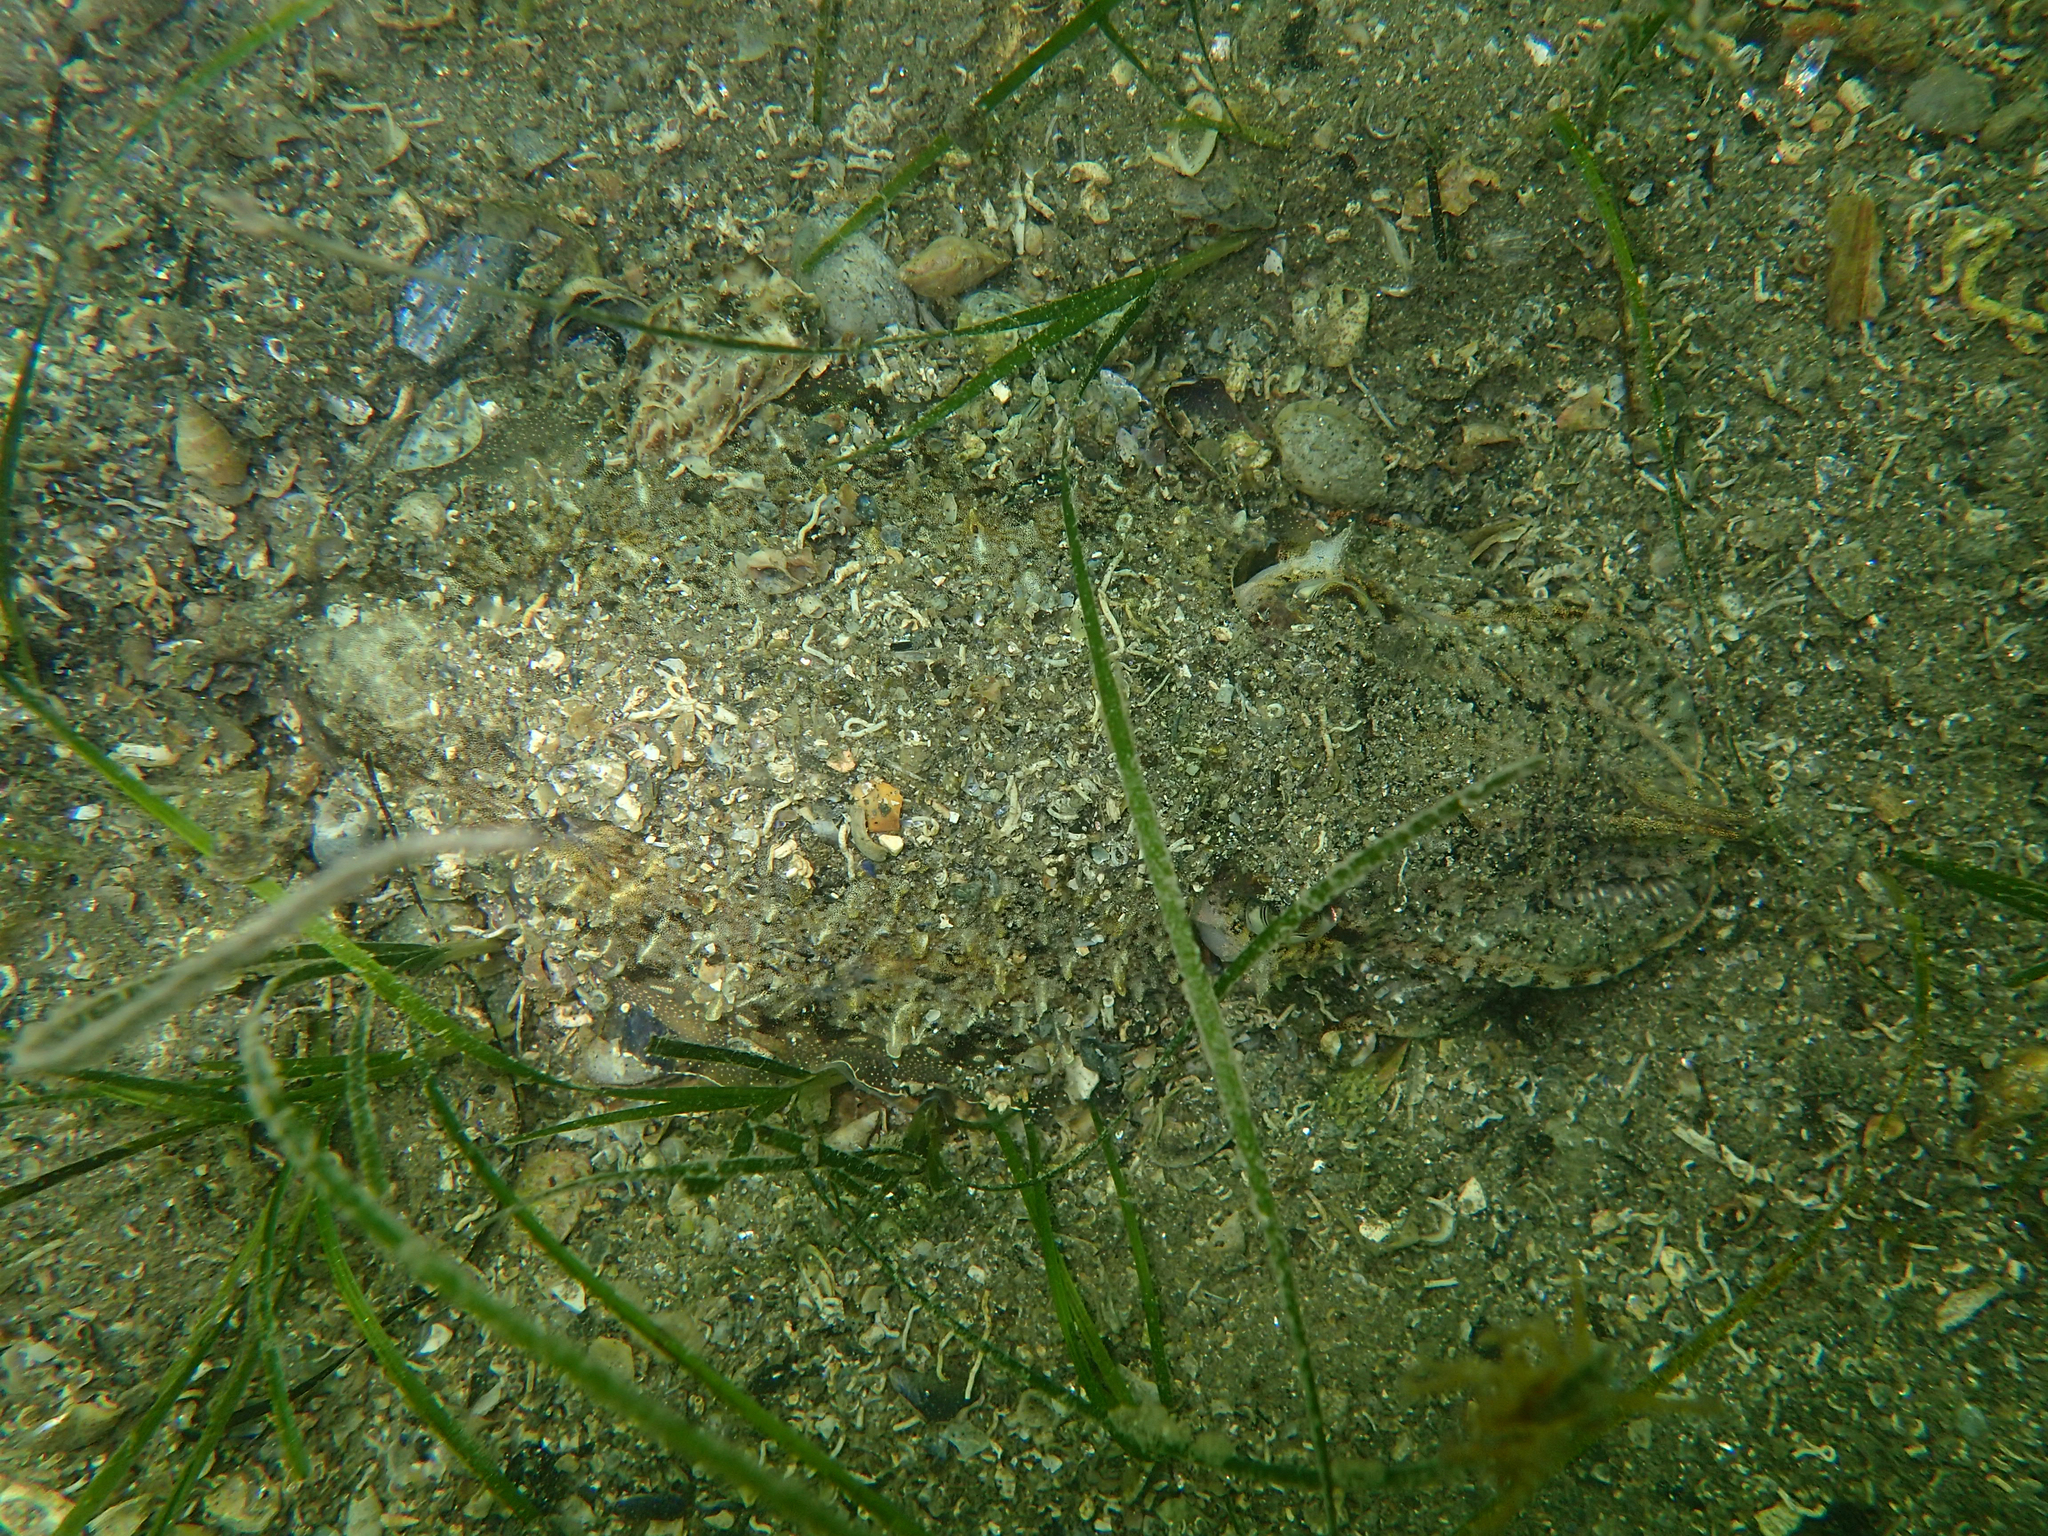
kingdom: Animalia
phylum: Mollusca
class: Cephalopoda
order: Sepiida
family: Sepiidae
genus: Sepia
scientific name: Sepia officinalis
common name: Common cuttlefish
